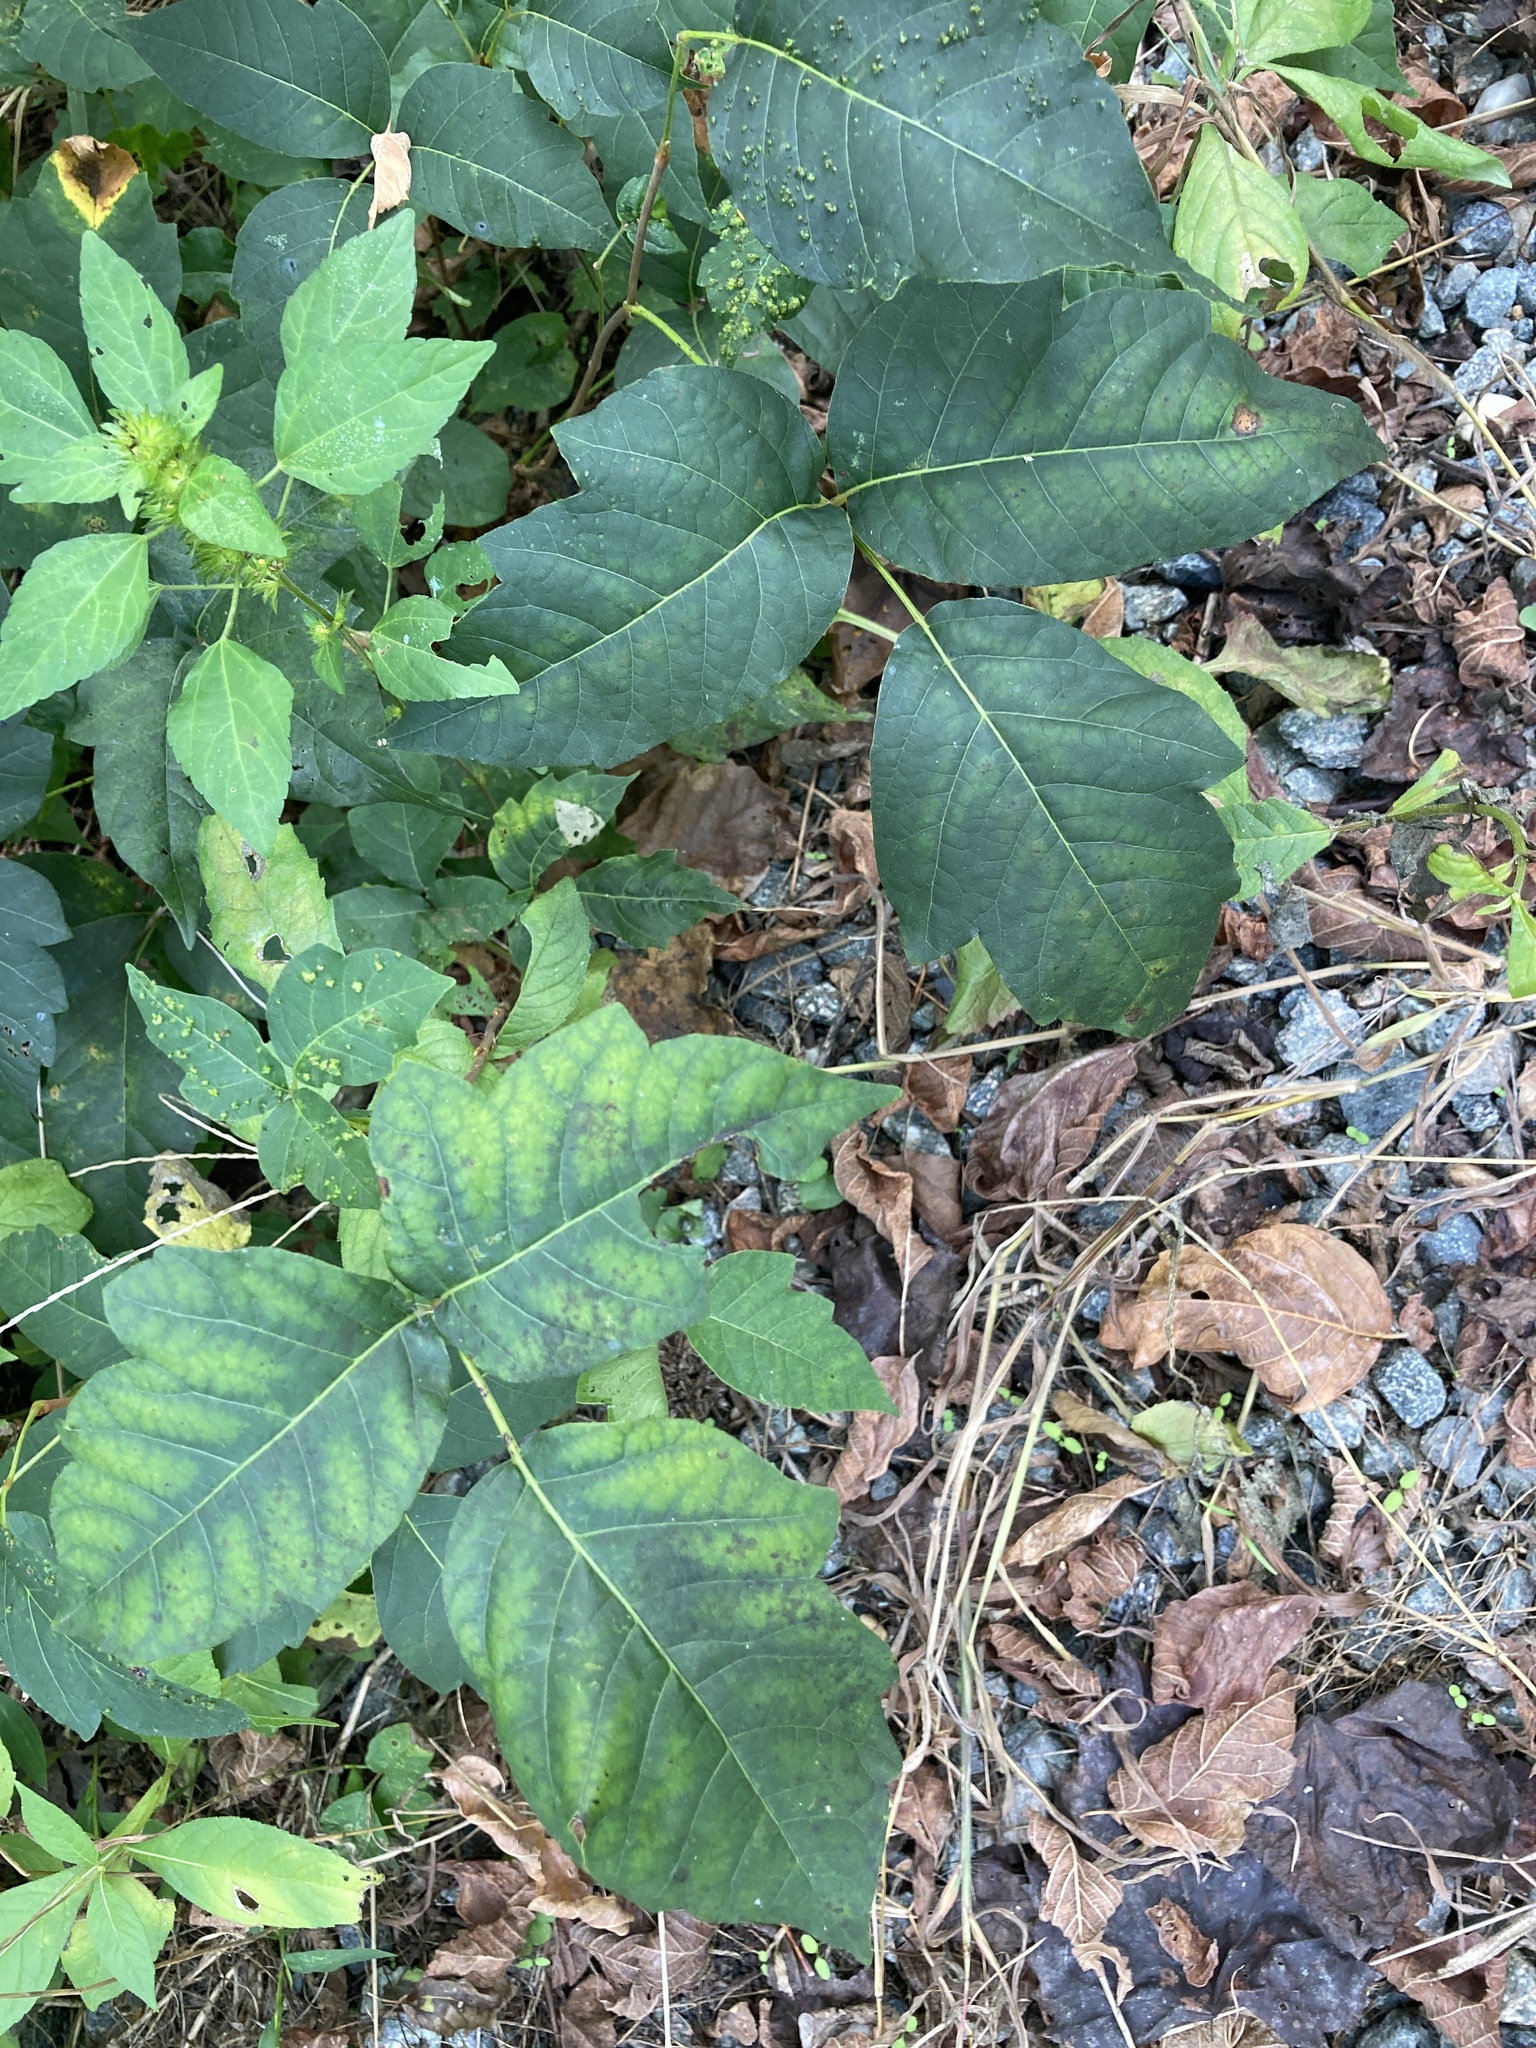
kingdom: Plantae
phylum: Tracheophyta
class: Magnoliopsida
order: Sapindales
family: Anacardiaceae
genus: Toxicodendron
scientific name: Toxicodendron radicans
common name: Poison ivy
